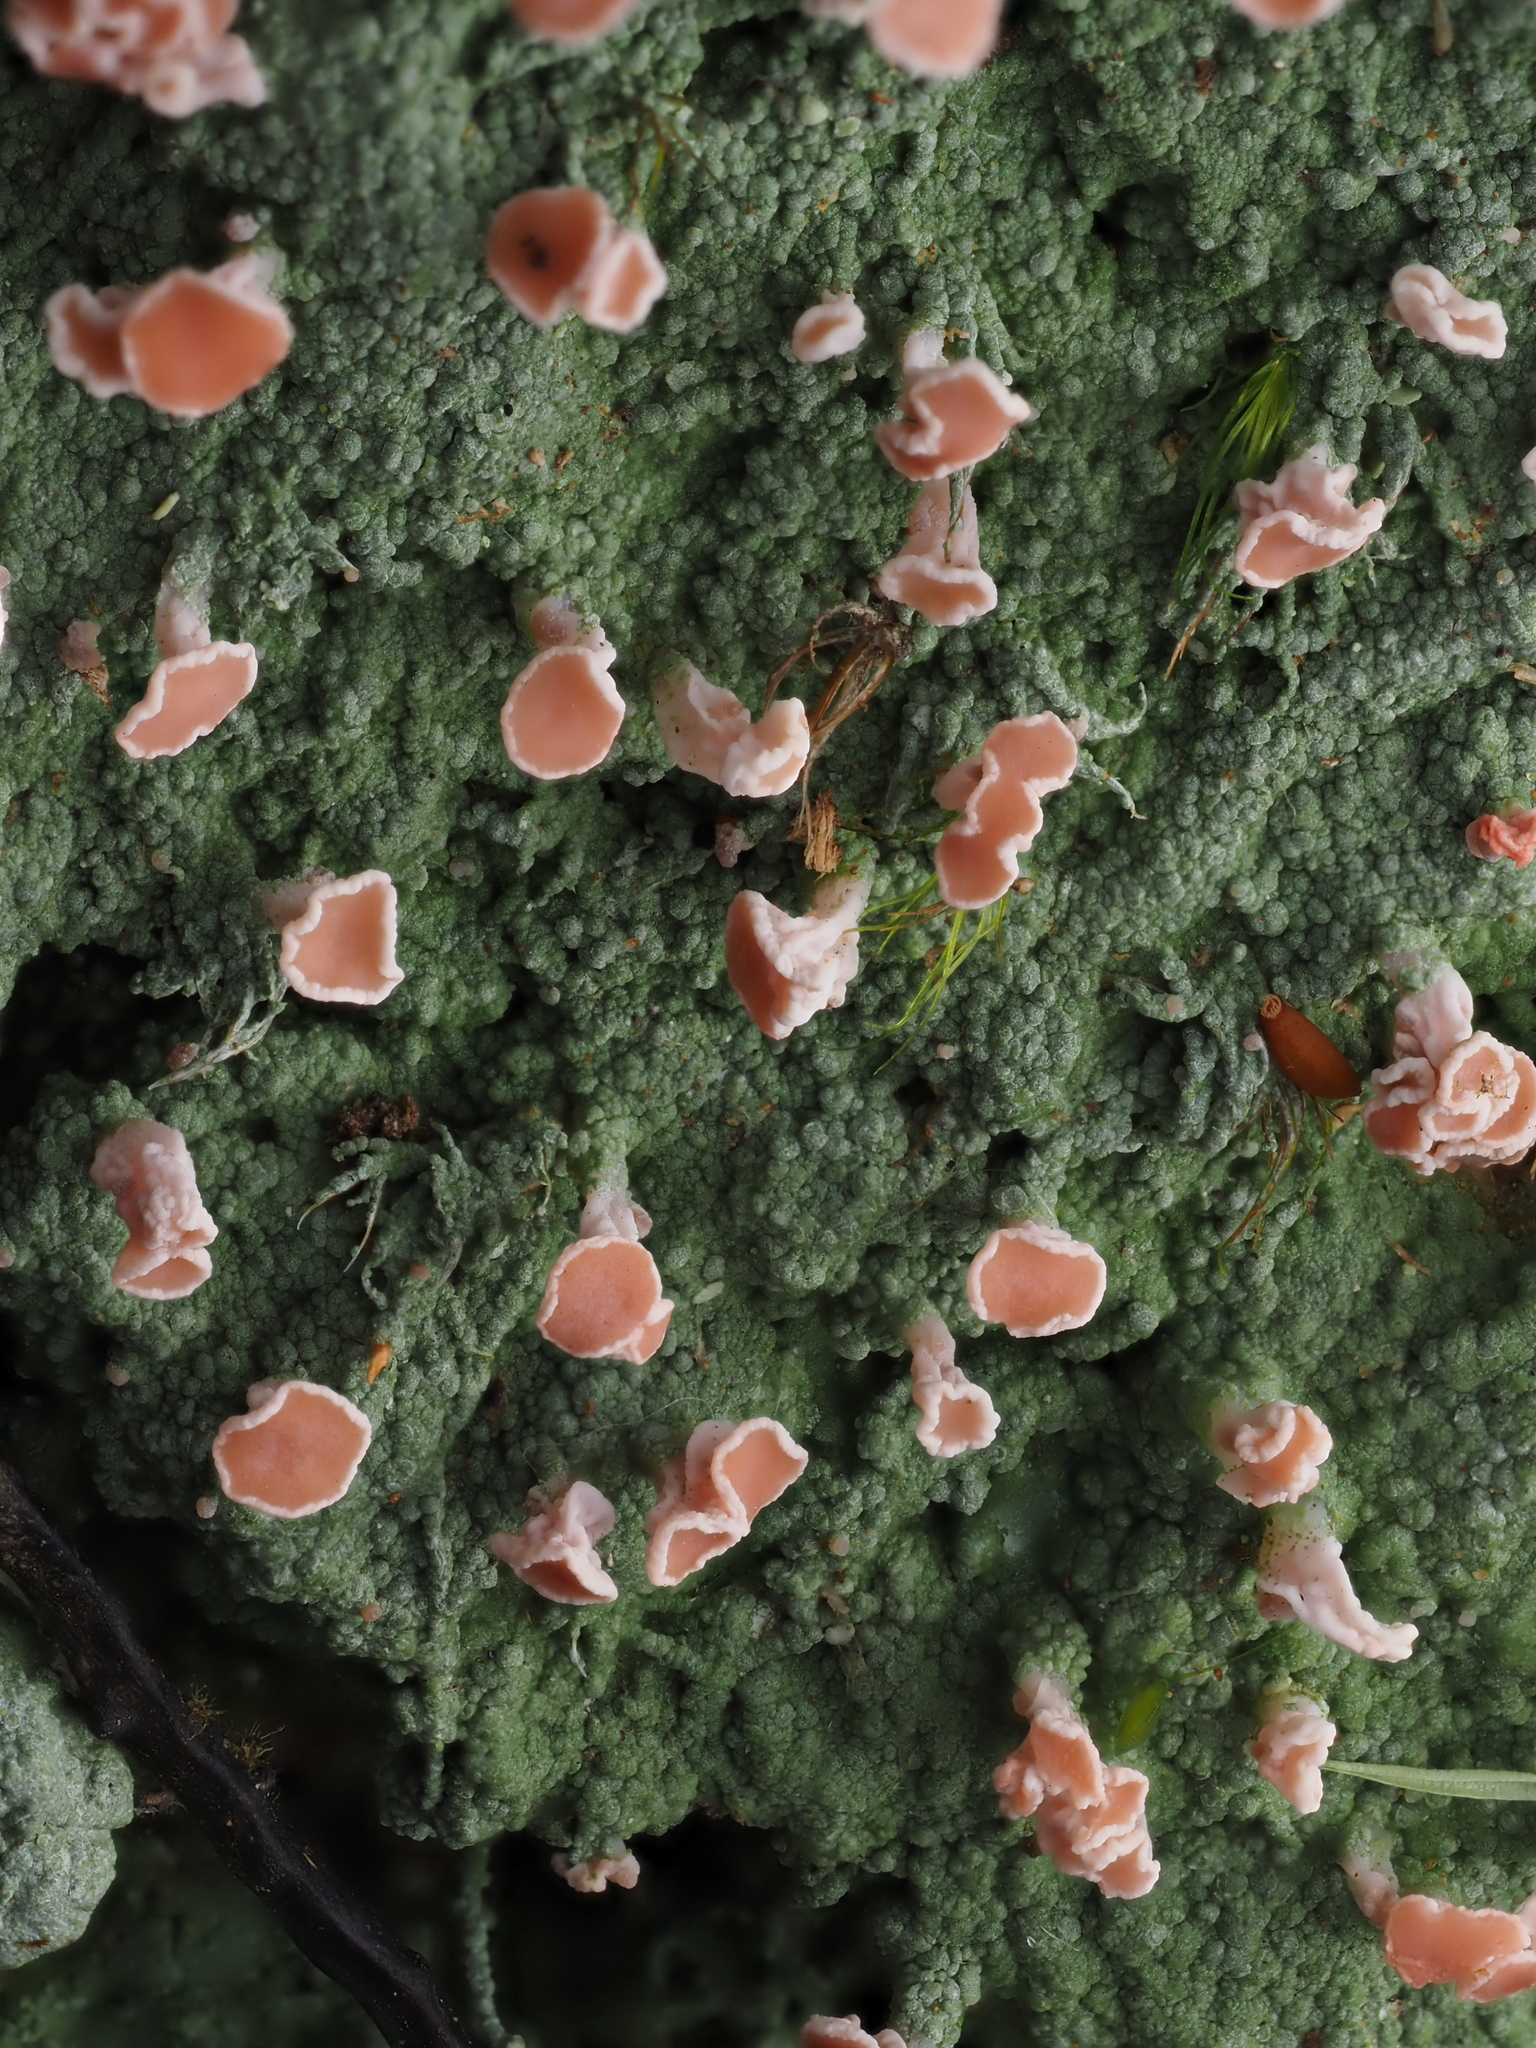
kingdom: Fungi
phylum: Ascomycota
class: Lecanoromycetes
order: Baeomycetales
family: Baeomycetaceae
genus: Baeomyces
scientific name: Baeomyces heteromorphus
